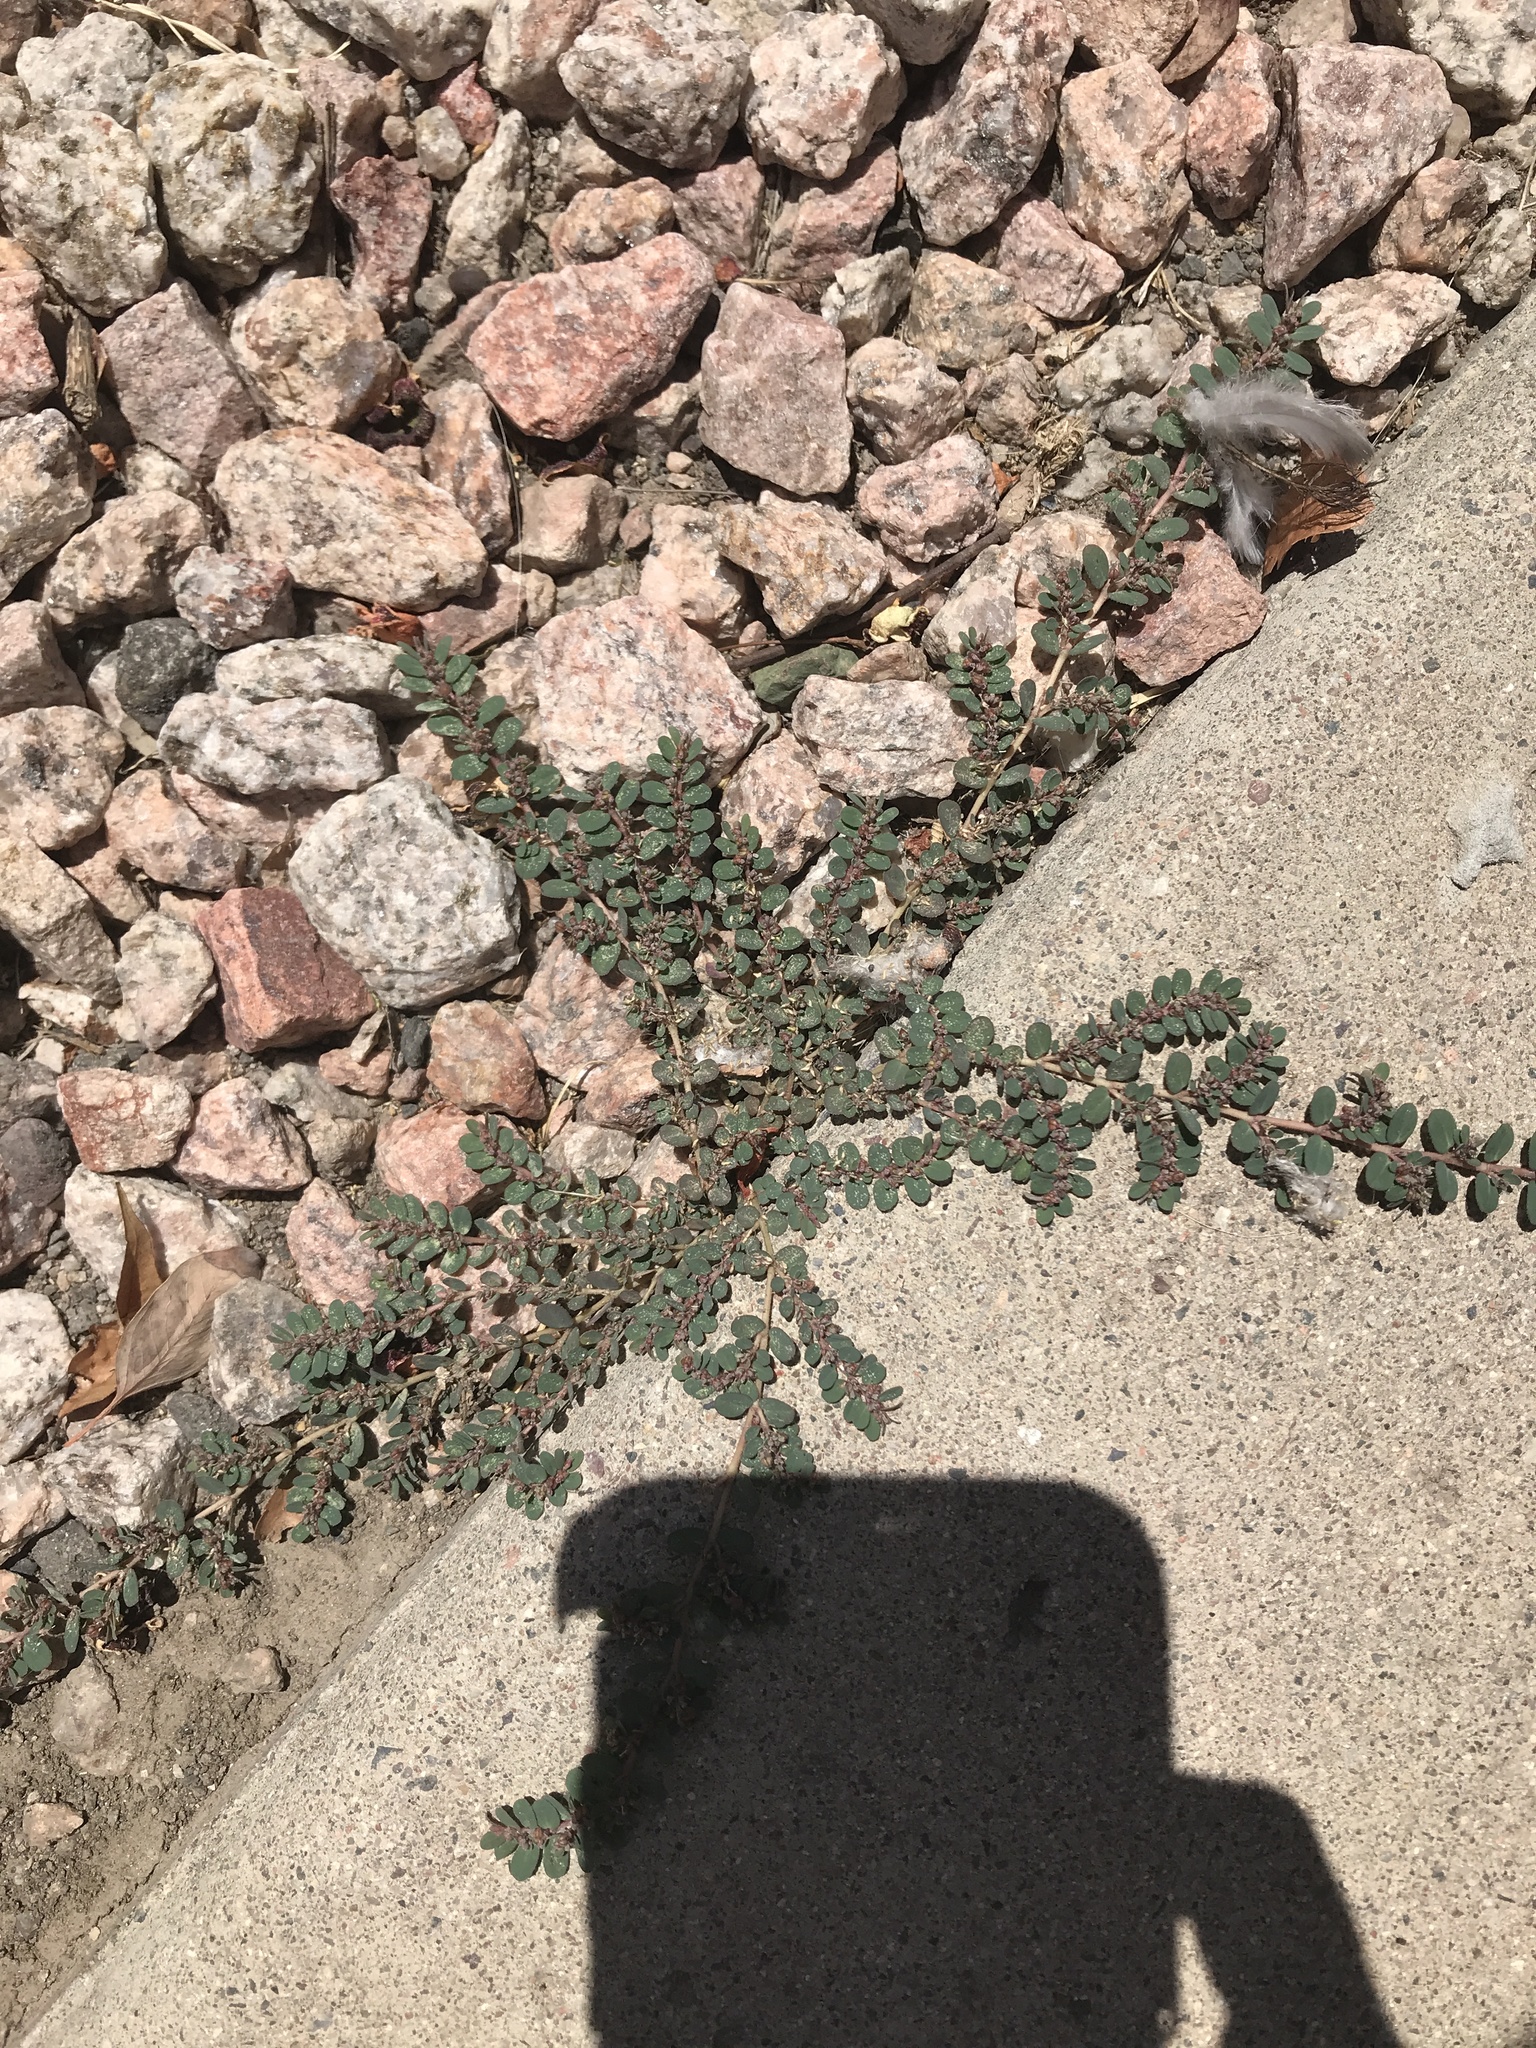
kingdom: Plantae
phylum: Tracheophyta
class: Magnoliopsida
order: Malpighiales
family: Euphorbiaceae
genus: Euphorbia
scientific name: Euphorbia prostrata
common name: Prostrate sandmat
